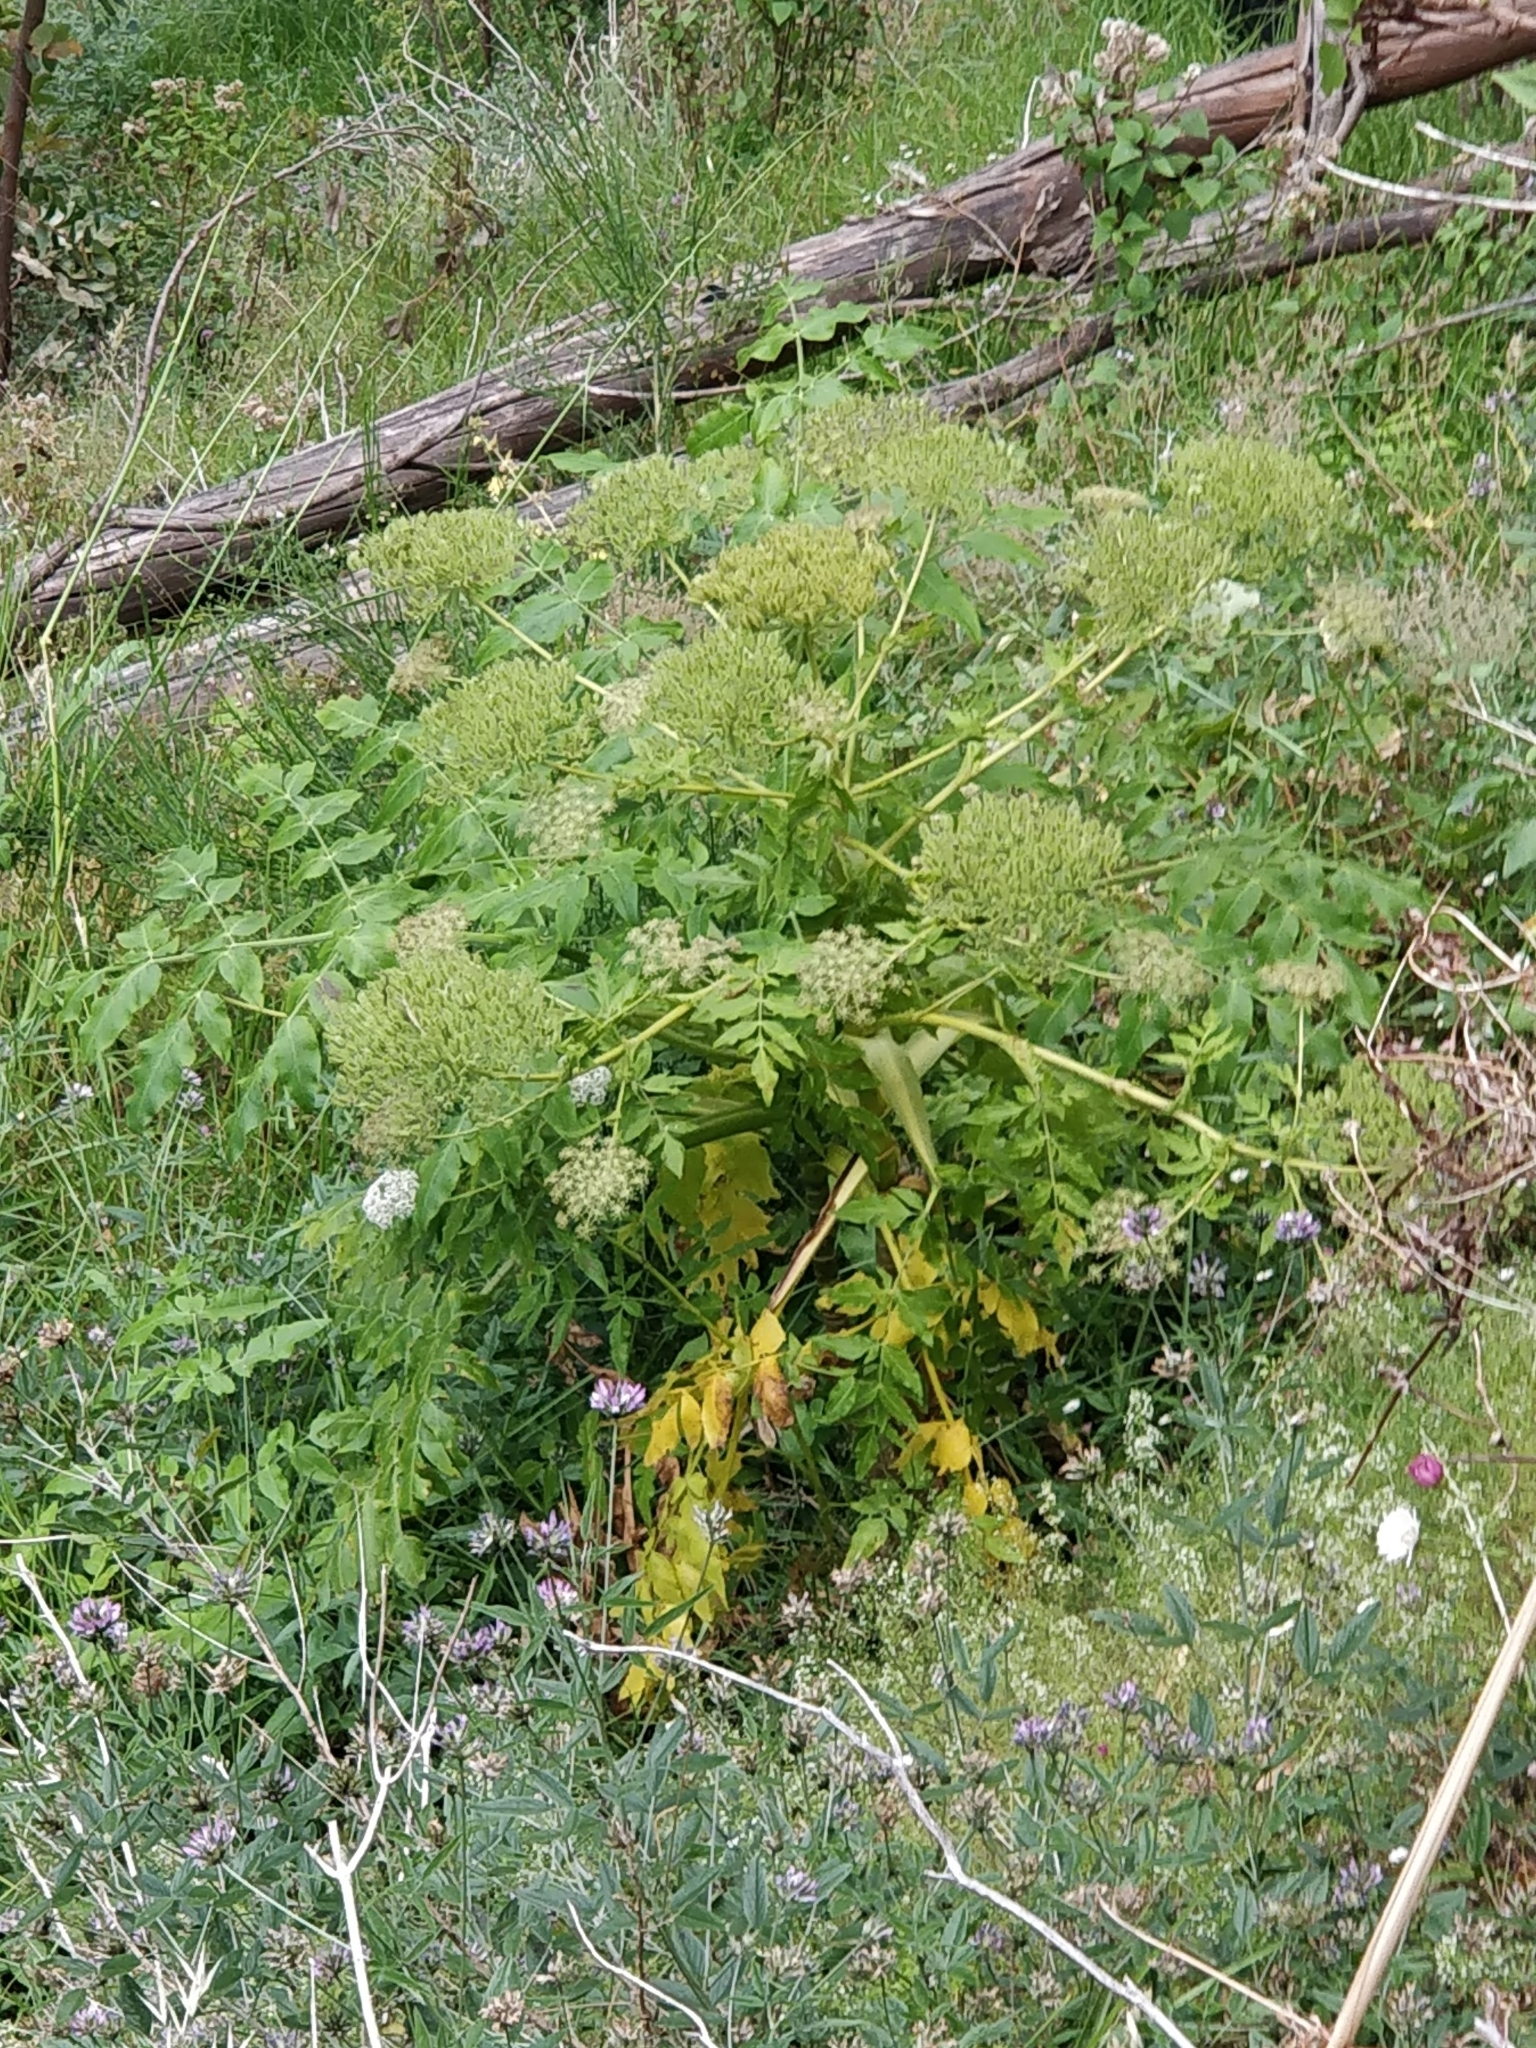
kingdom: Plantae
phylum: Tracheophyta
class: Magnoliopsida
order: Apiales
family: Apiaceae
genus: Daucus
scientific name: Daucus decipiens
